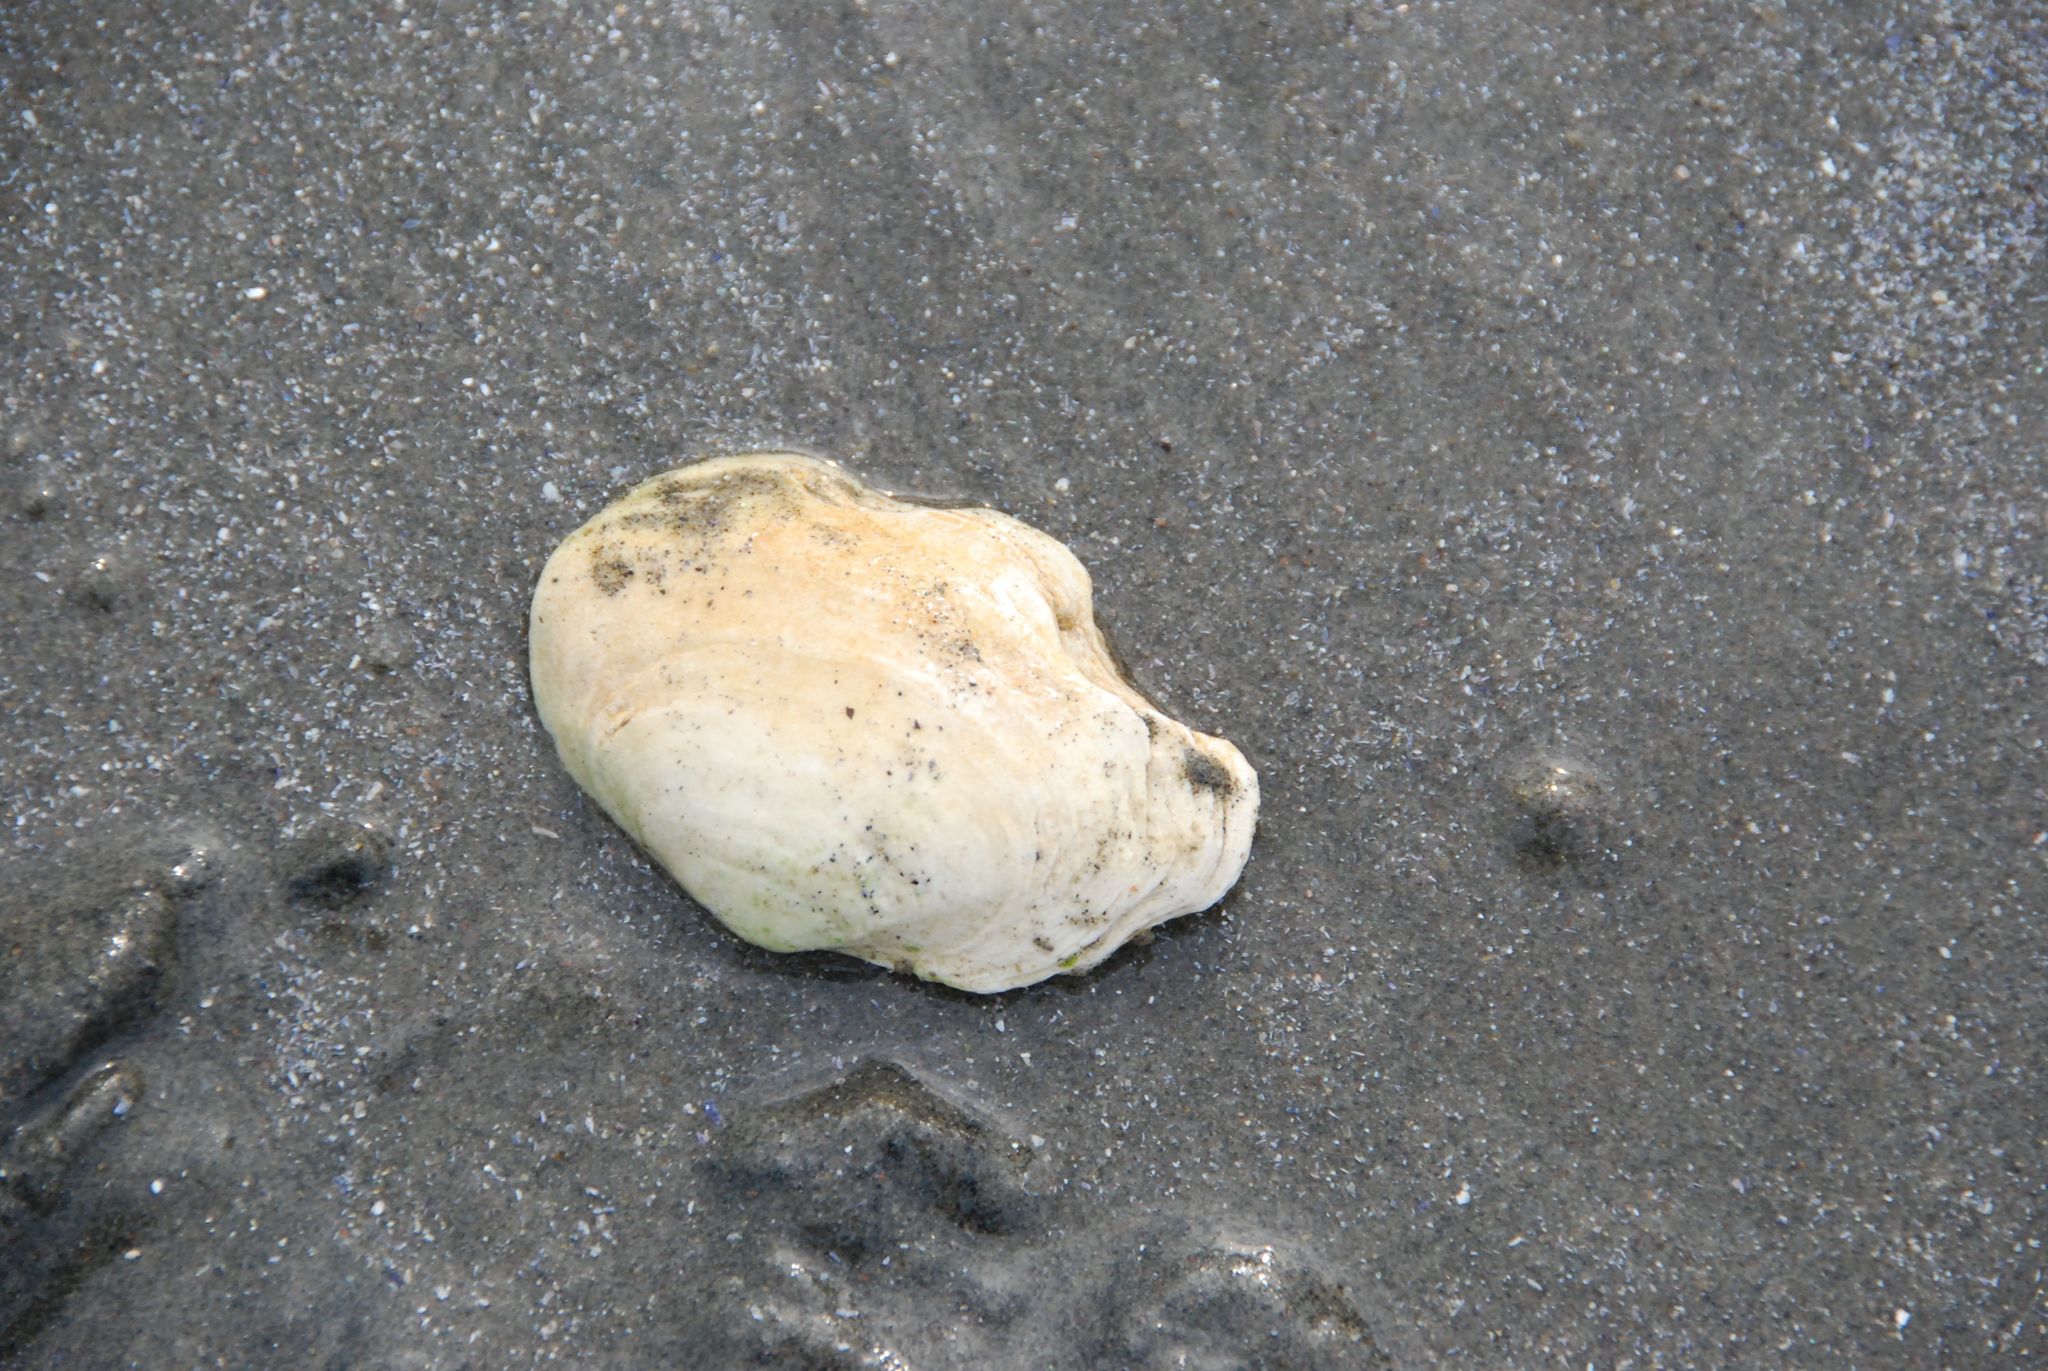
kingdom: Animalia
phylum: Mollusca
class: Bivalvia
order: Myida
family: Myidae
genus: Mya
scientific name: Mya arenaria
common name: Soft-shelled clam
